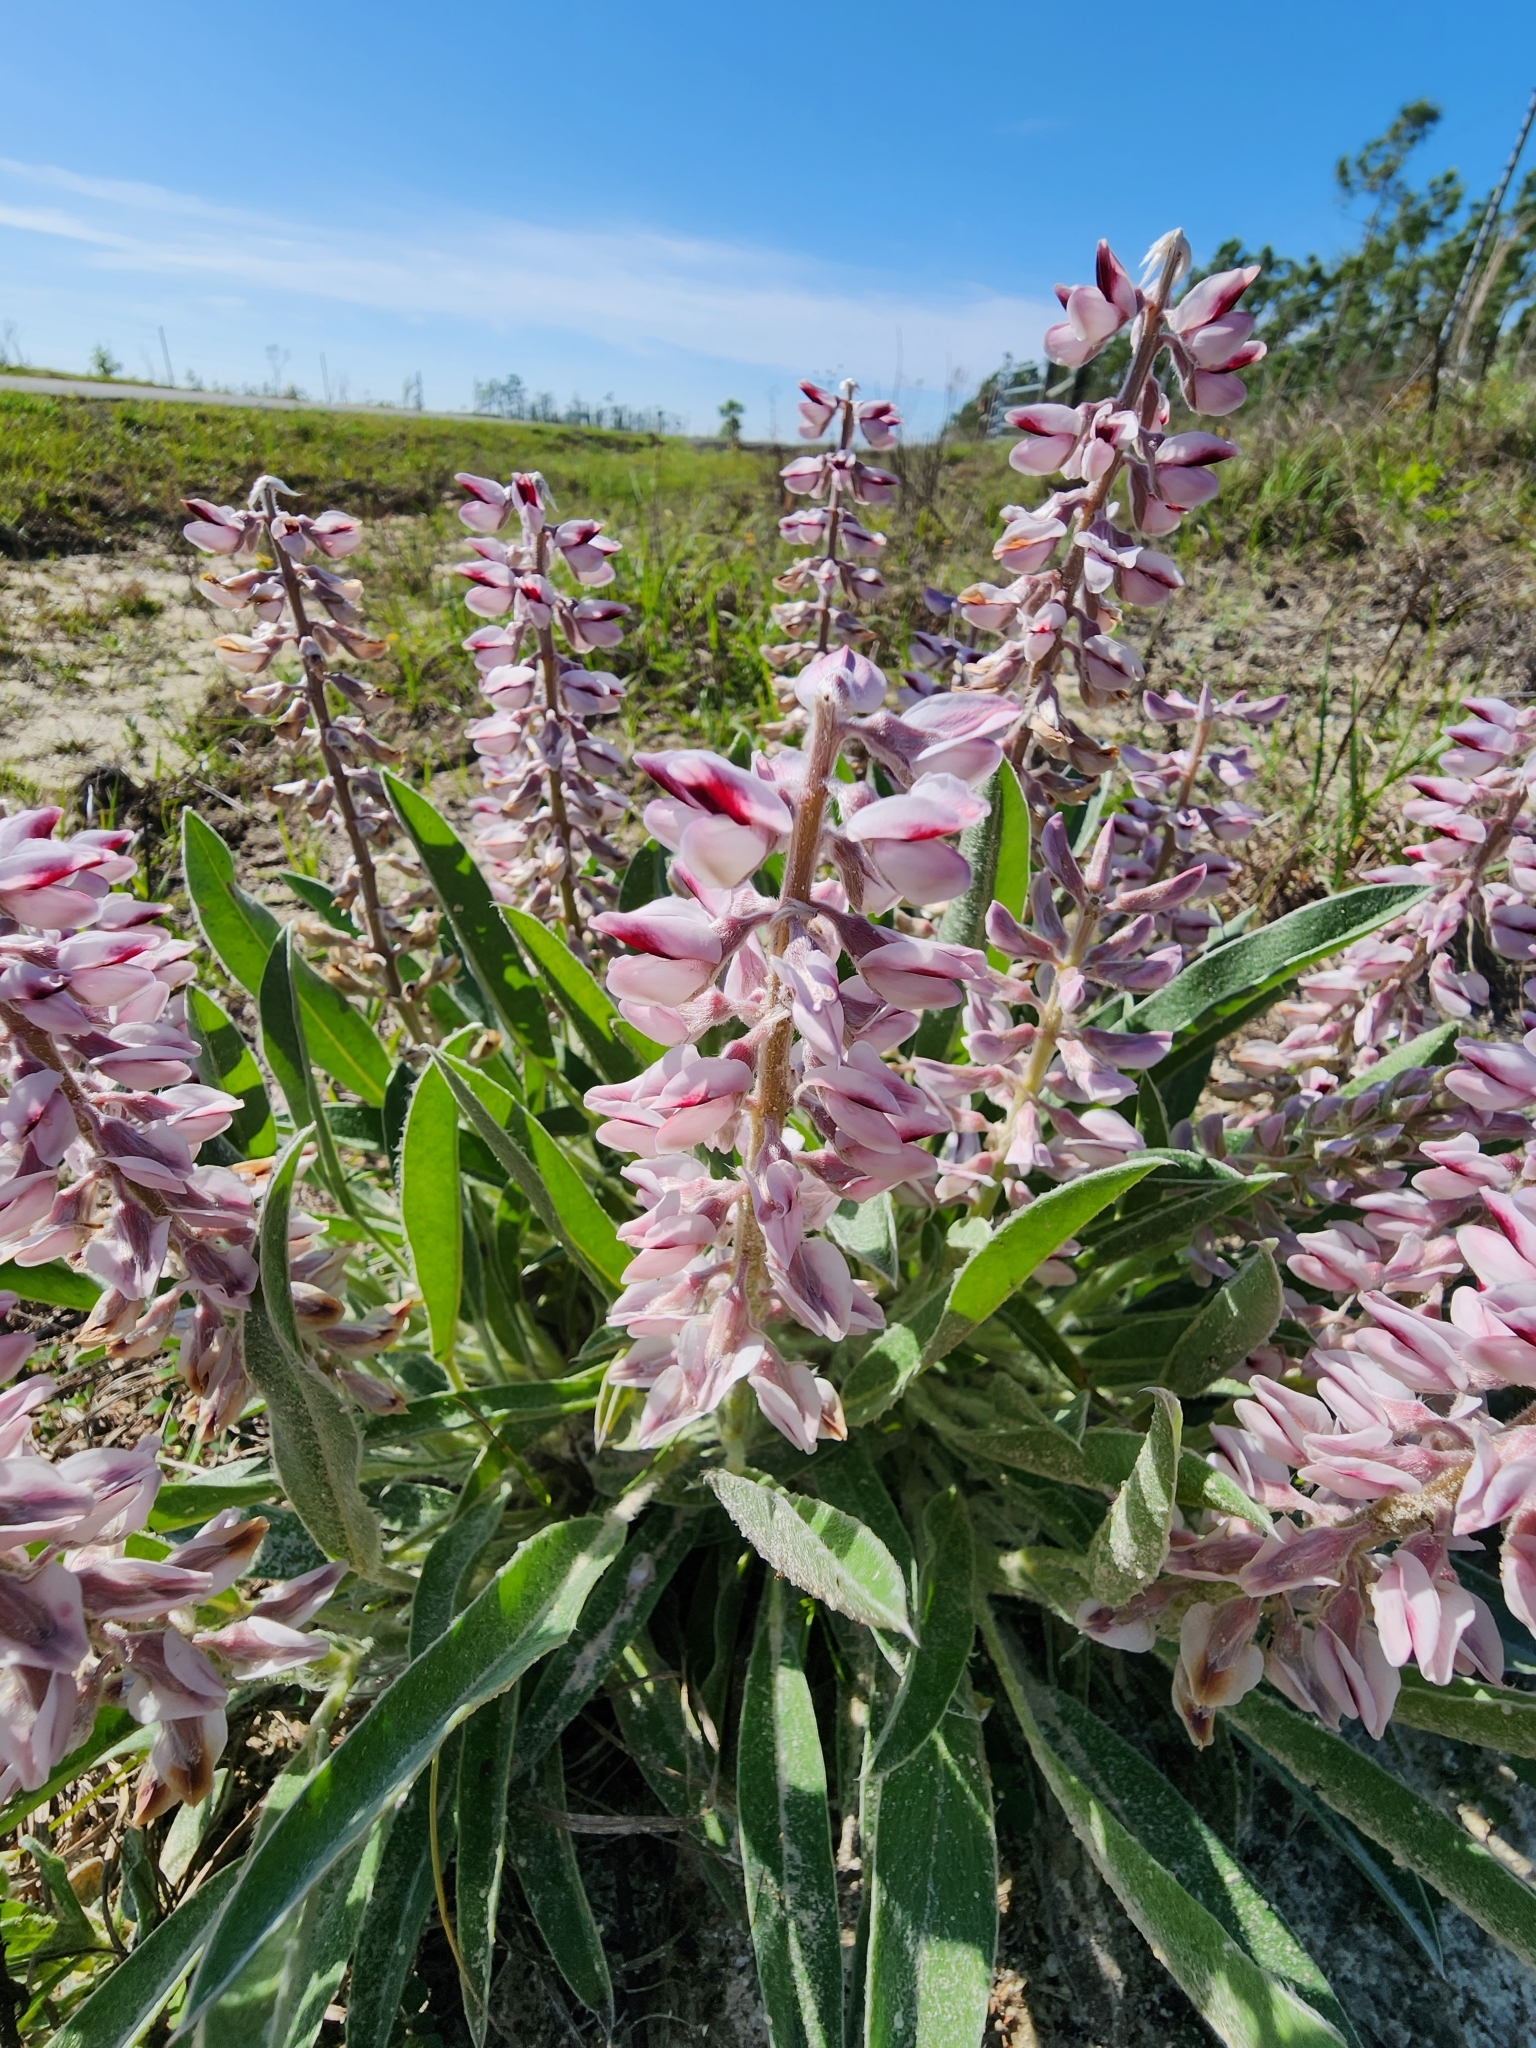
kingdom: Plantae
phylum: Tracheophyta
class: Magnoliopsida
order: Fabales
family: Fabaceae
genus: Lupinus
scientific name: Lupinus villosus
